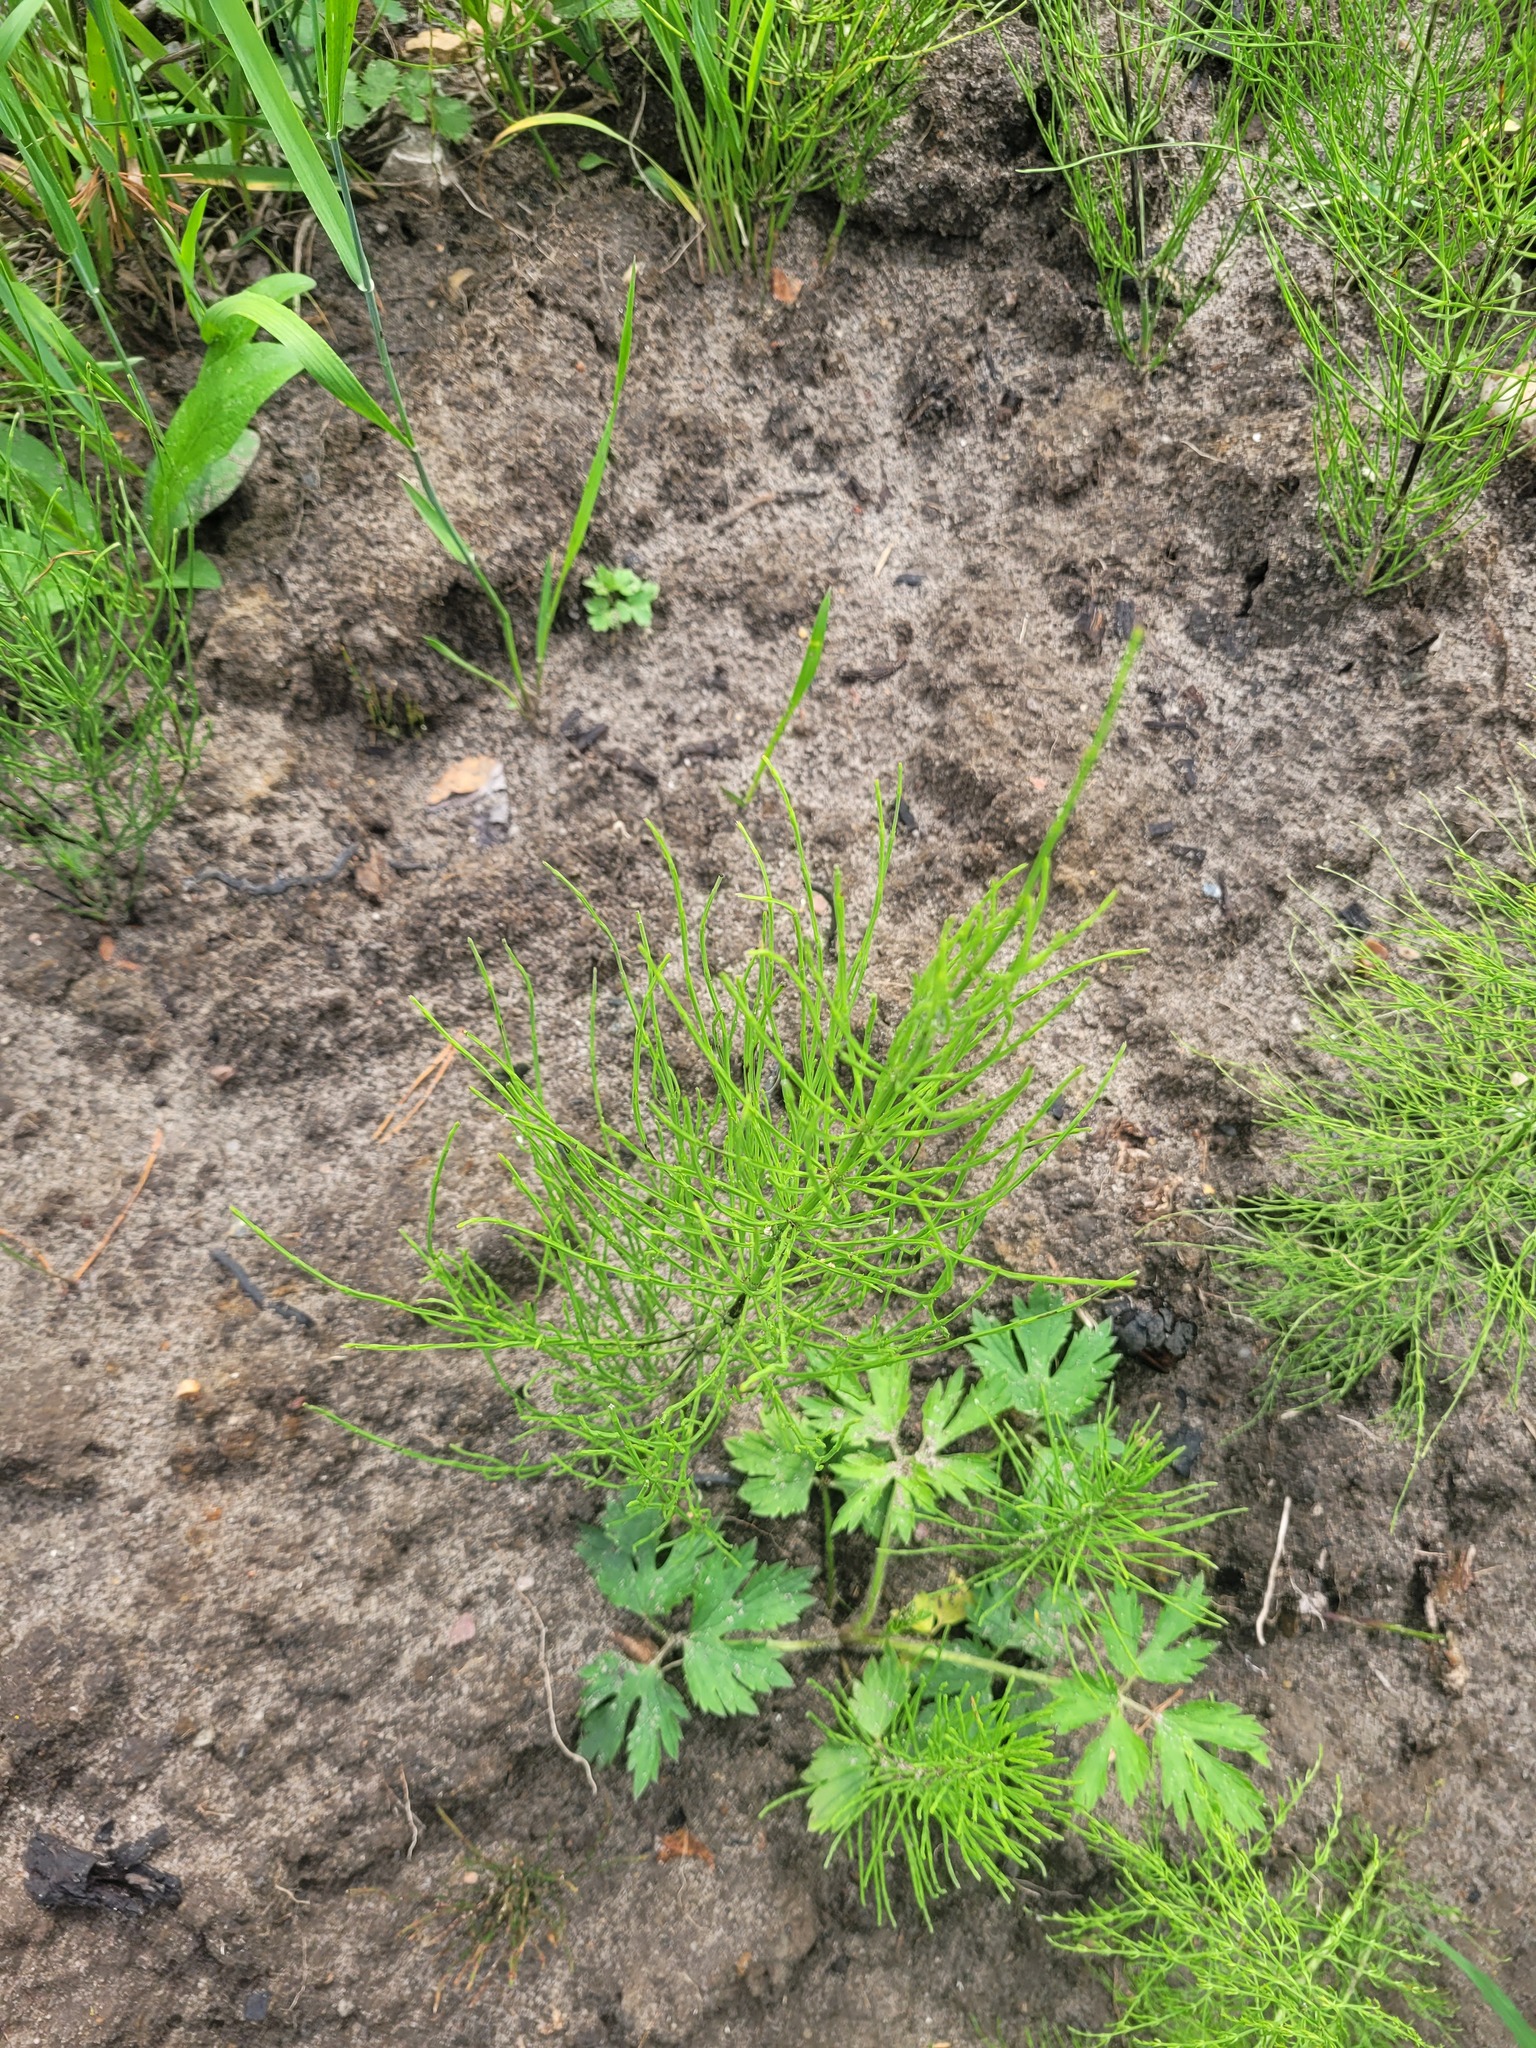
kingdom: Plantae
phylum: Tracheophyta
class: Polypodiopsida
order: Equisetales
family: Equisetaceae
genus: Equisetum
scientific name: Equisetum arvense
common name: Field horsetail
